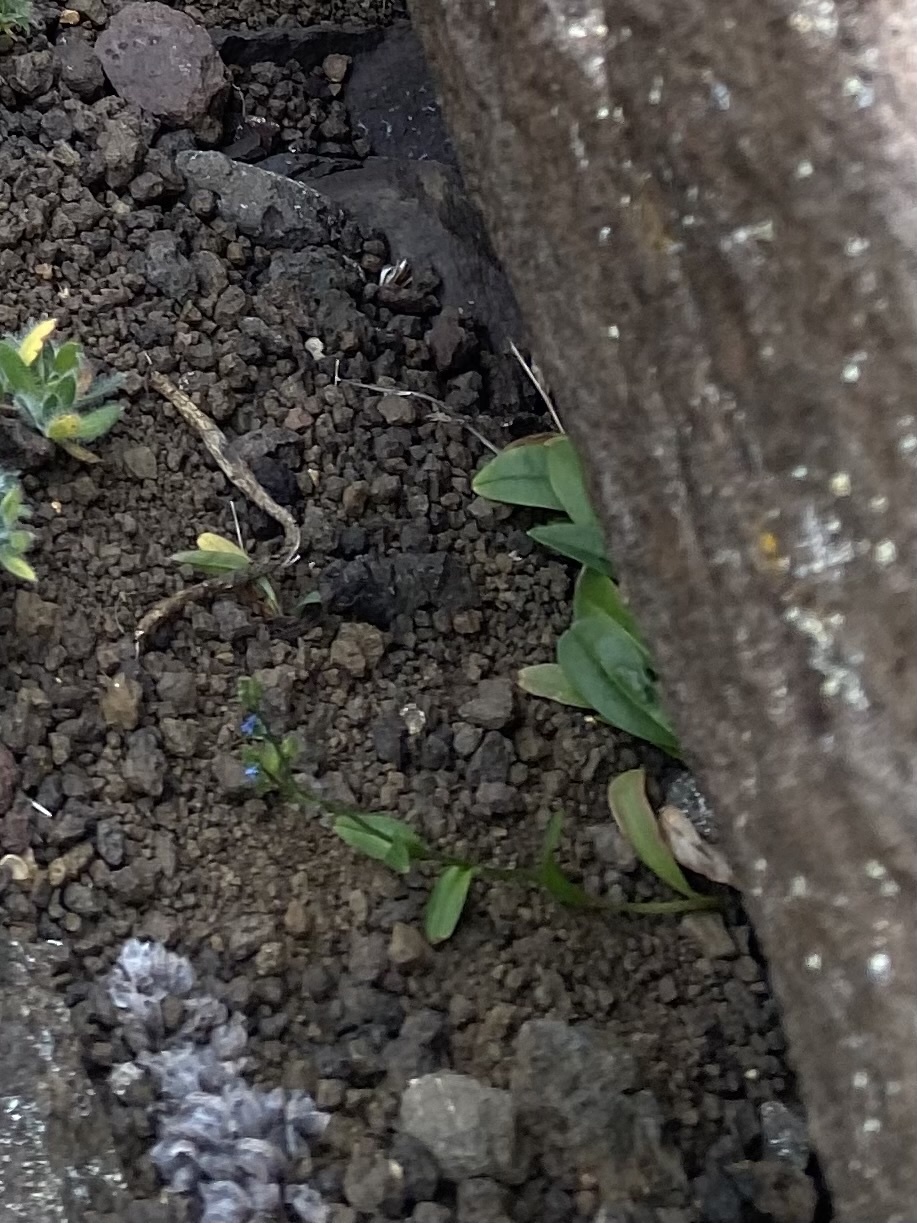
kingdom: Plantae
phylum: Tracheophyta
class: Magnoliopsida
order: Boraginales
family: Boraginaceae
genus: Myosotis
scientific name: Myosotis asiatica
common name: Asian forget-me-not
